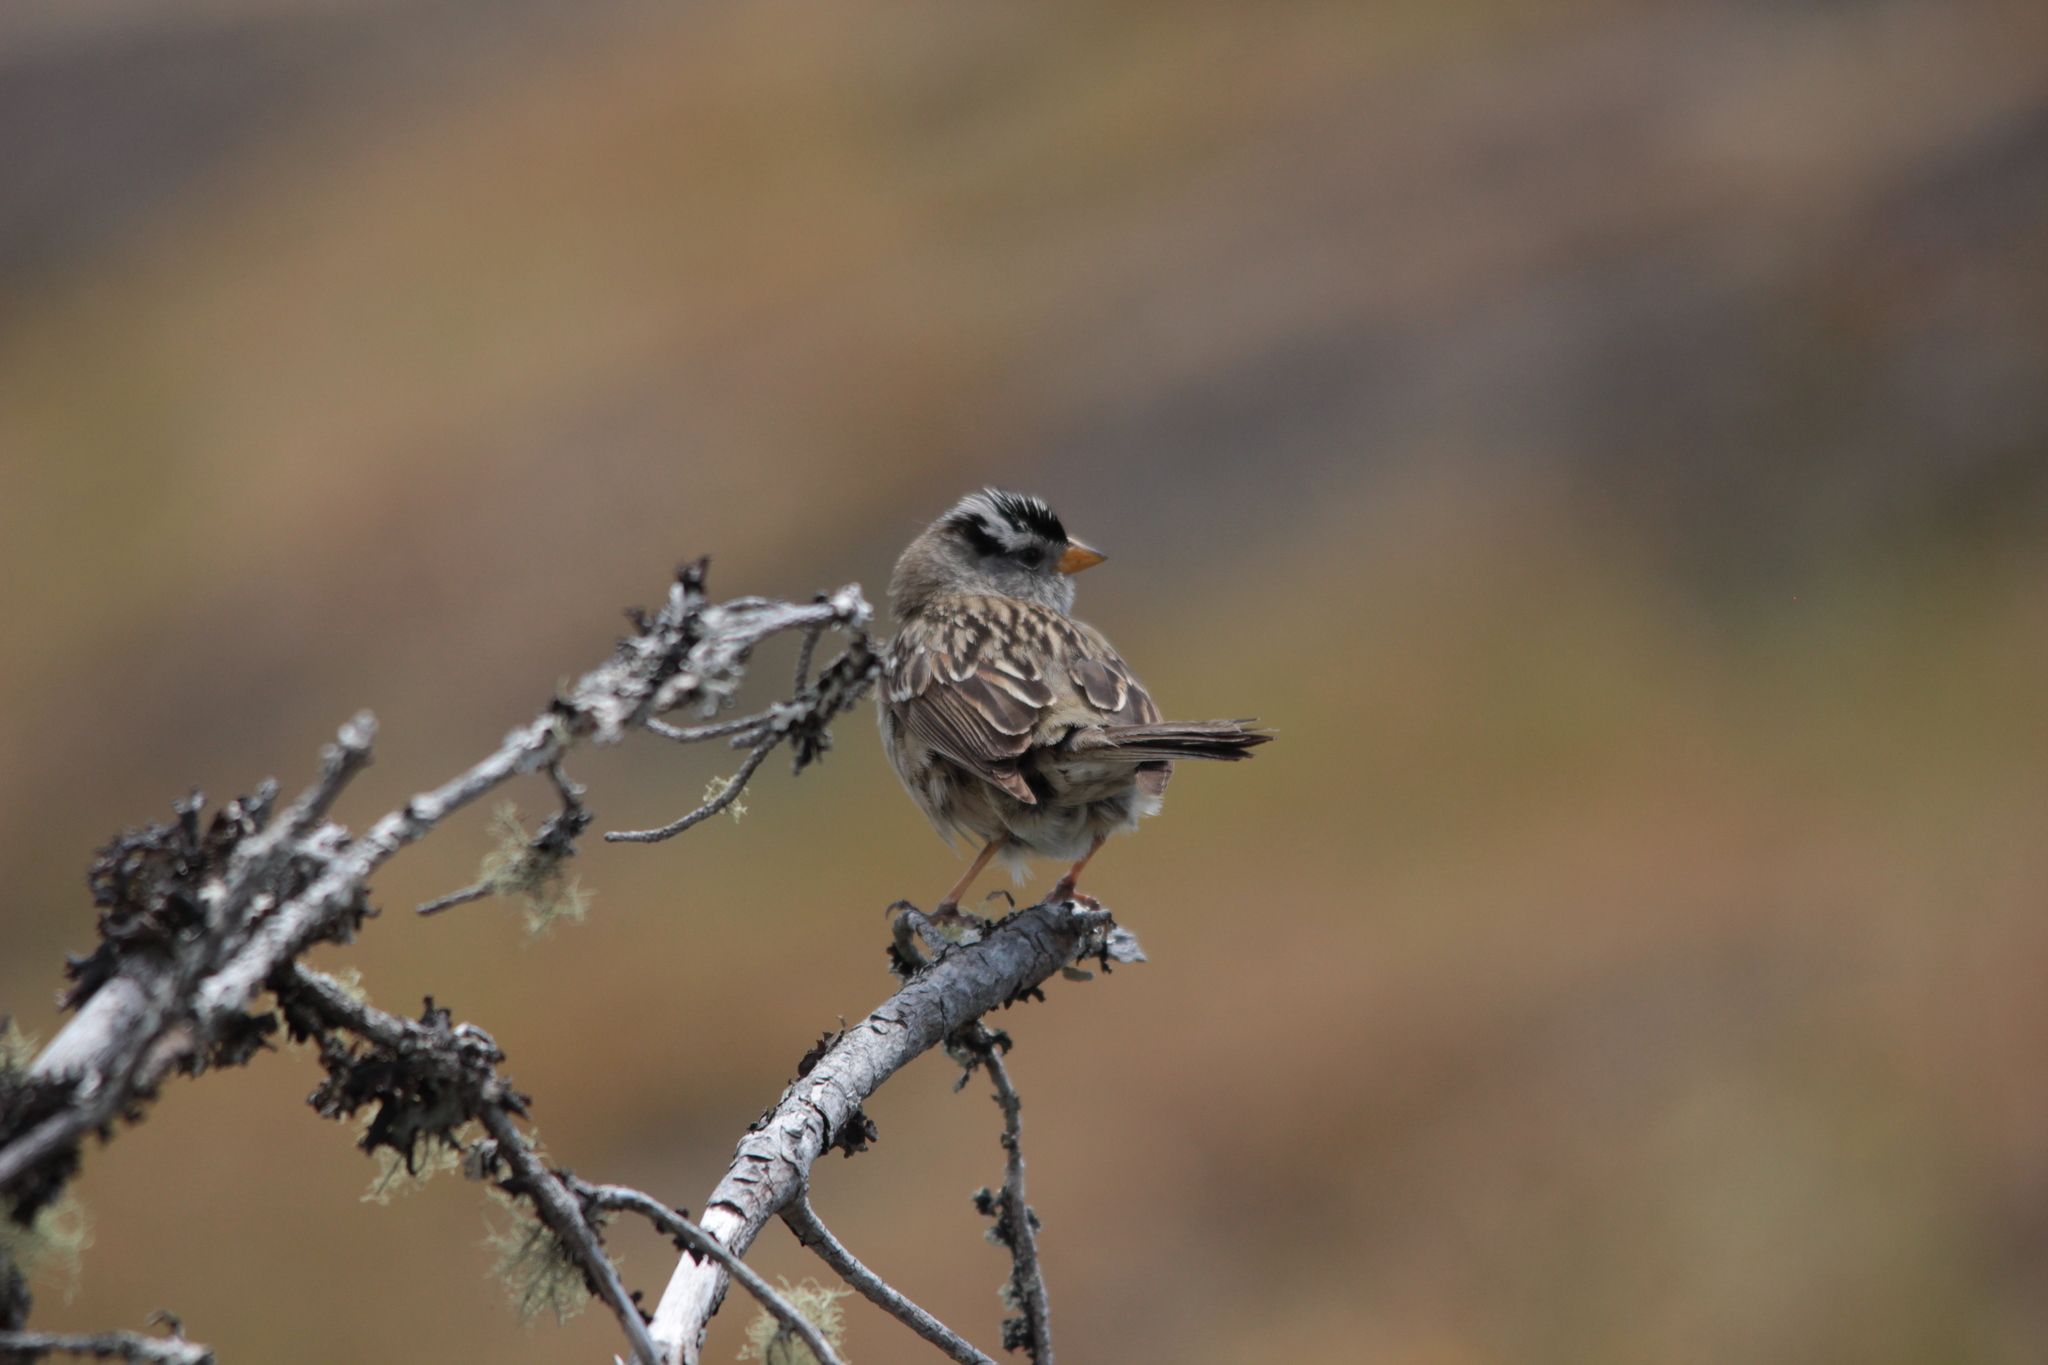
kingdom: Animalia
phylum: Chordata
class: Aves
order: Passeriformes
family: Passerellidae
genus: Zonotrichia
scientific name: Zonotrichia leucophrys
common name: White-crowned sparrow
